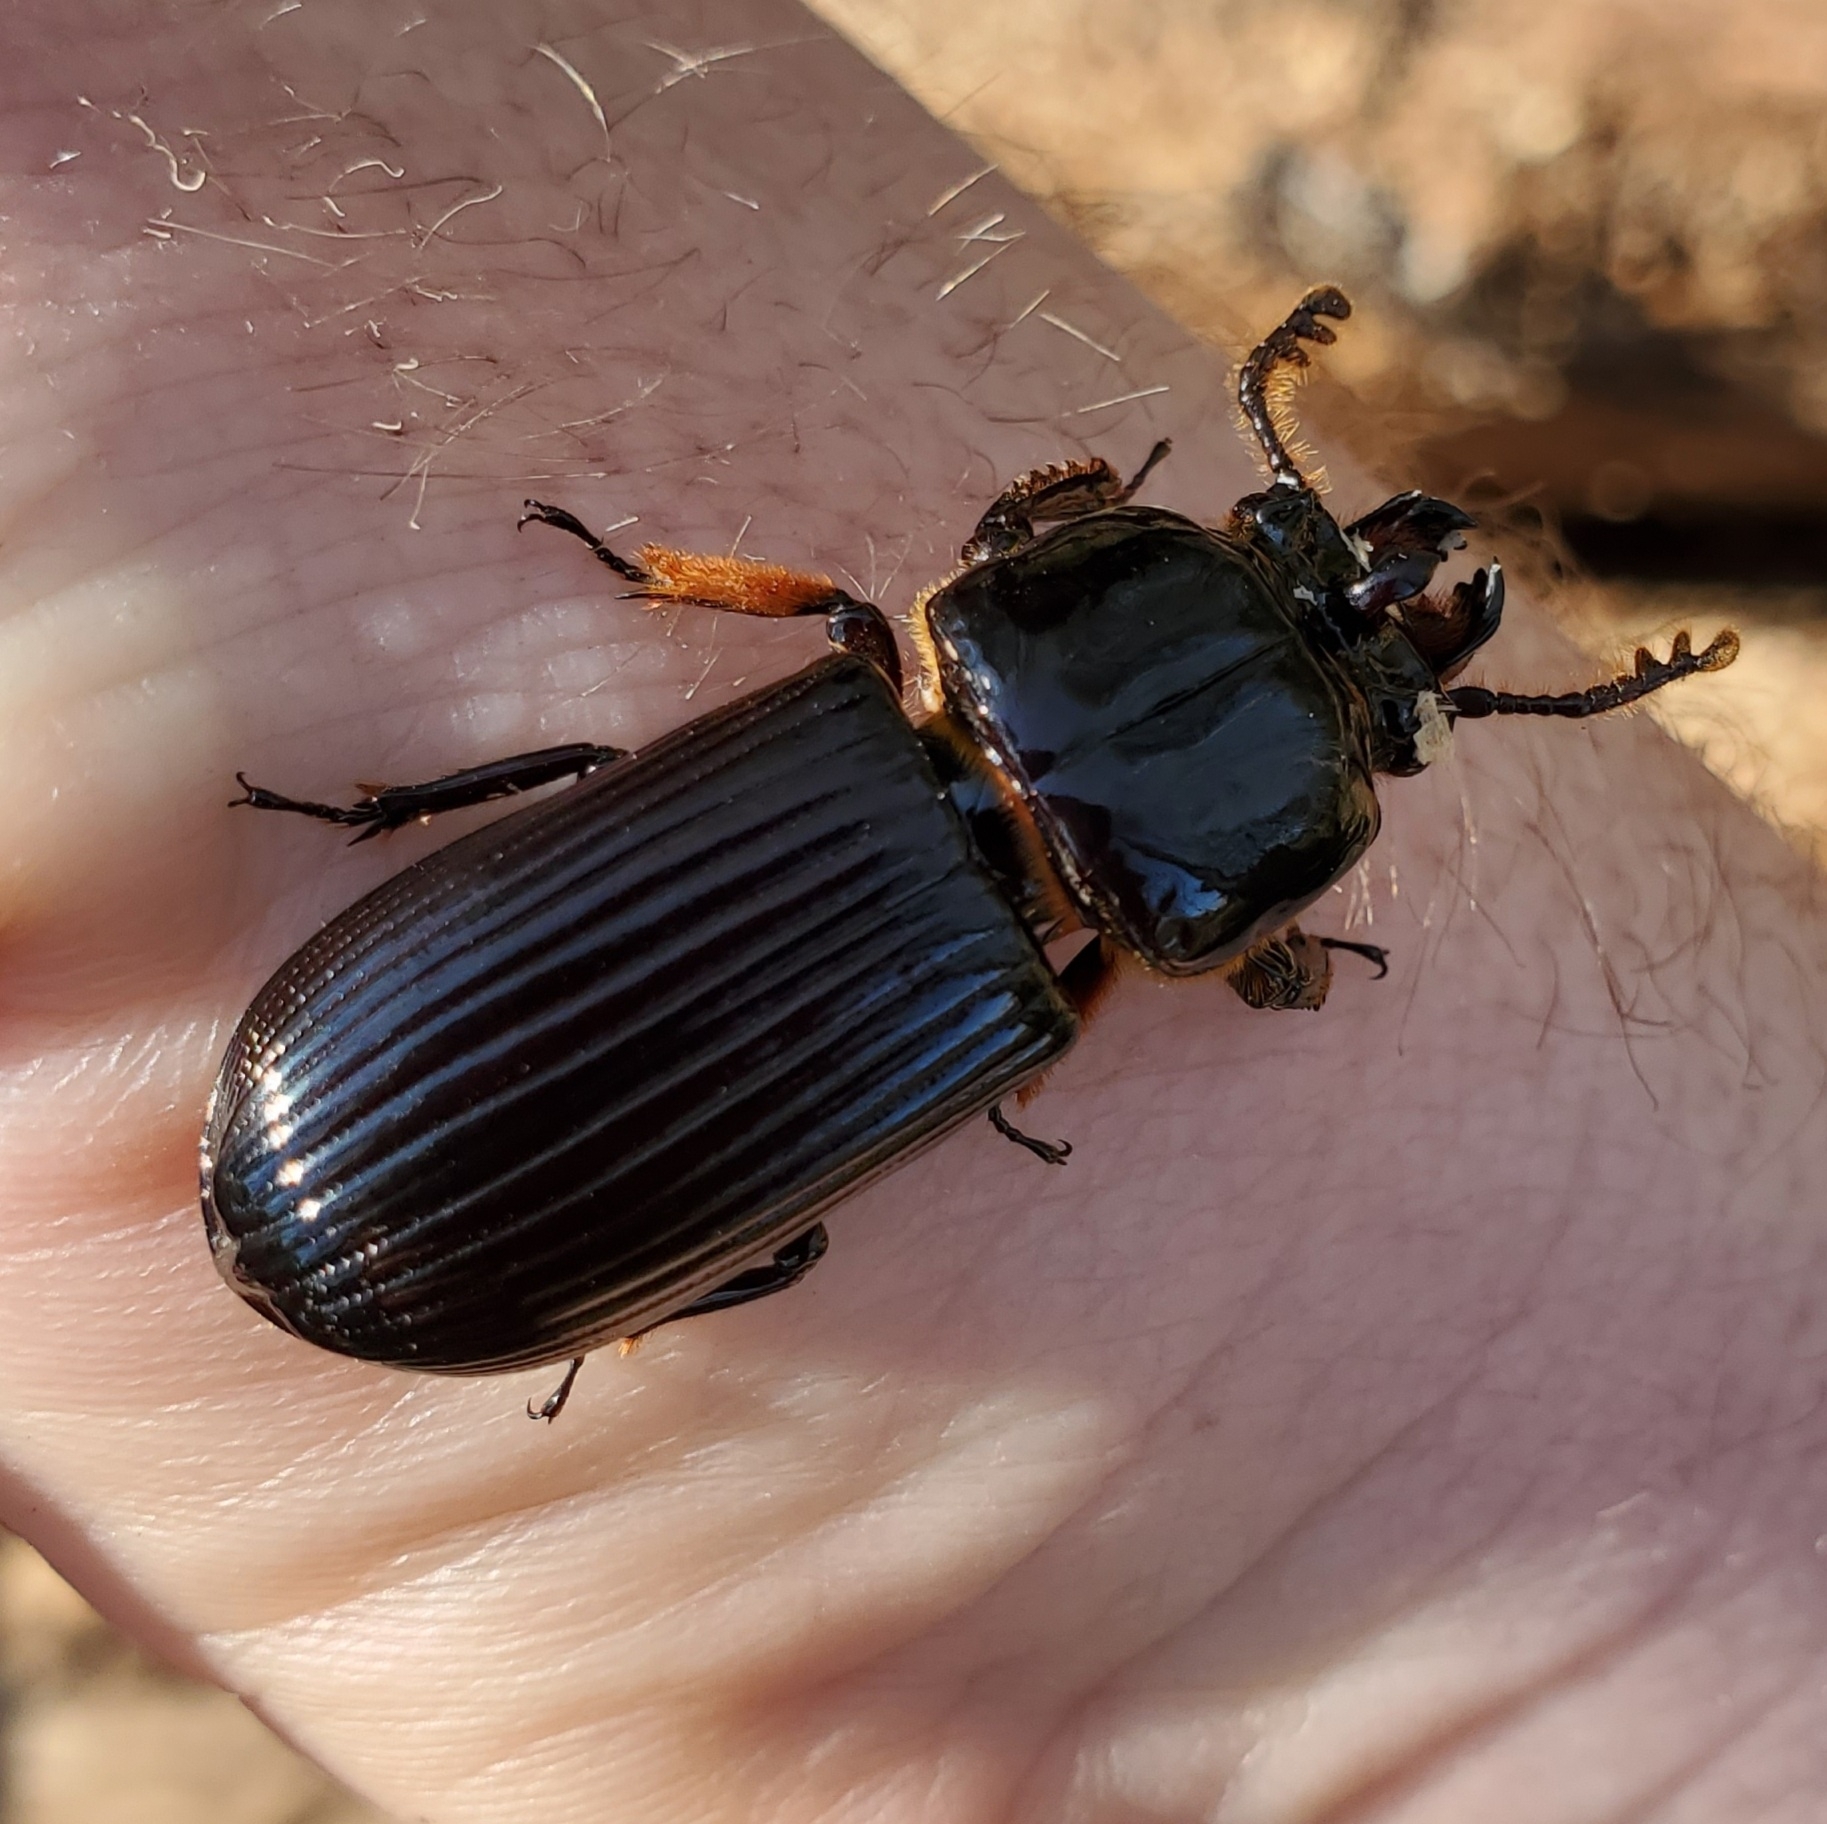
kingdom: Animalia
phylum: Arthropoda
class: Insecta
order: Coleoptera
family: Passalidae
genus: Odontotaenius
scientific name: Odontotaenius disjunctus
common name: Patent leather beetle
